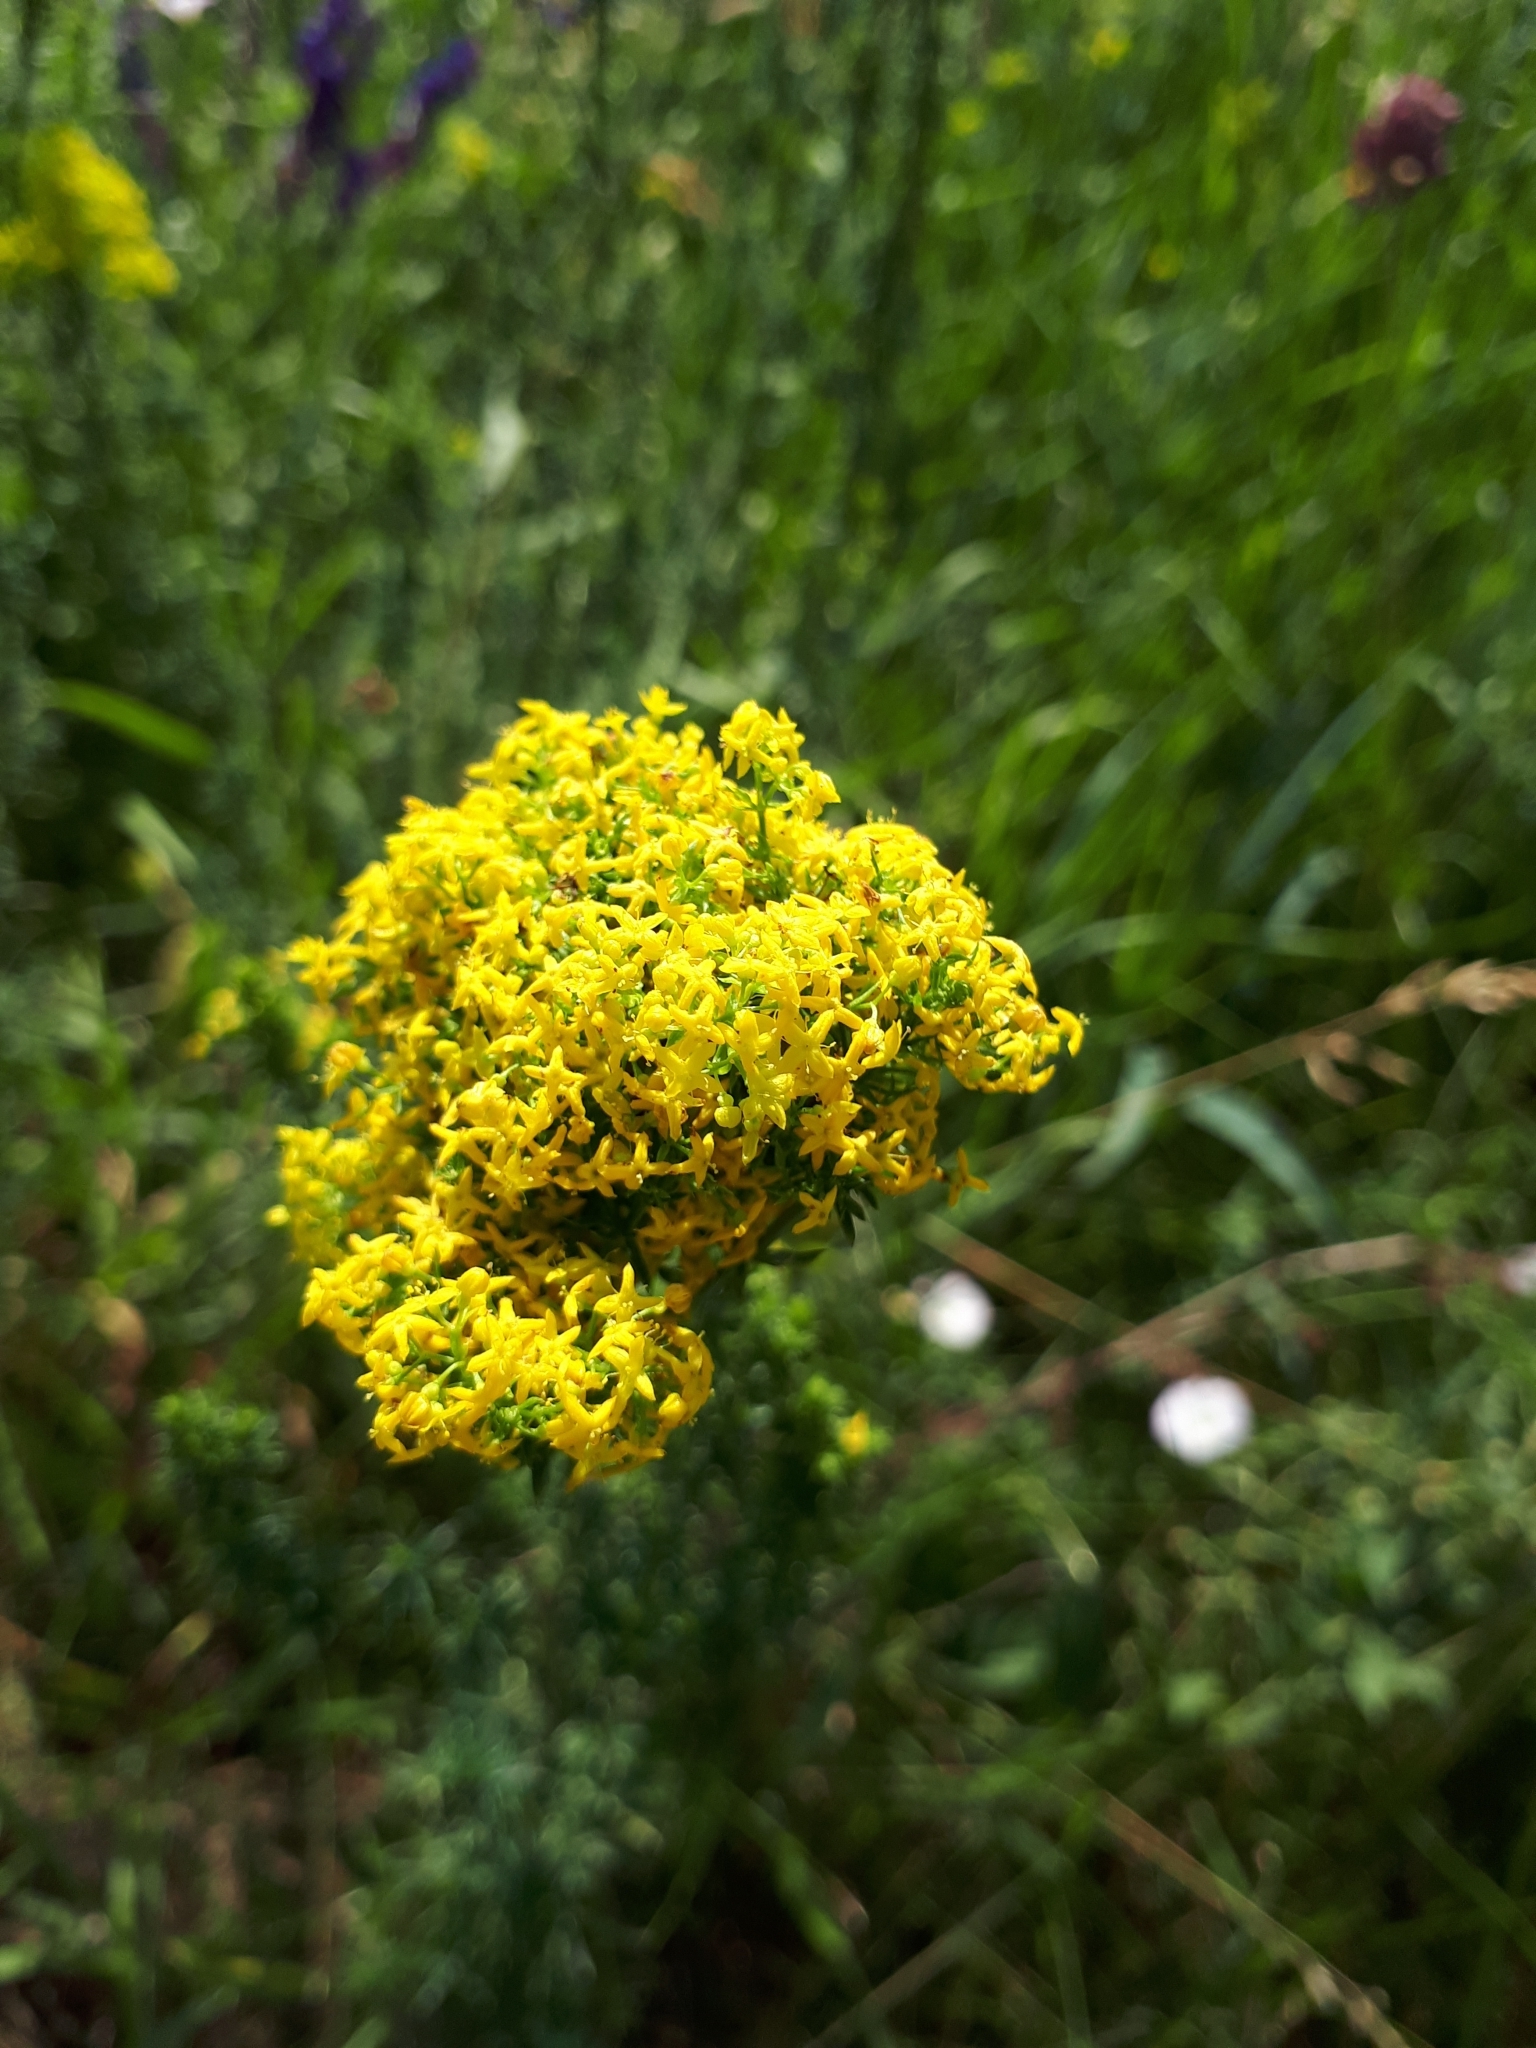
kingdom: Plantae
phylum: Tracheophyta
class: Magnoliopsida
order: Gentianales
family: Rubiaceae
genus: Galium
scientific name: Galium verum
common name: Lady's bedstraw
